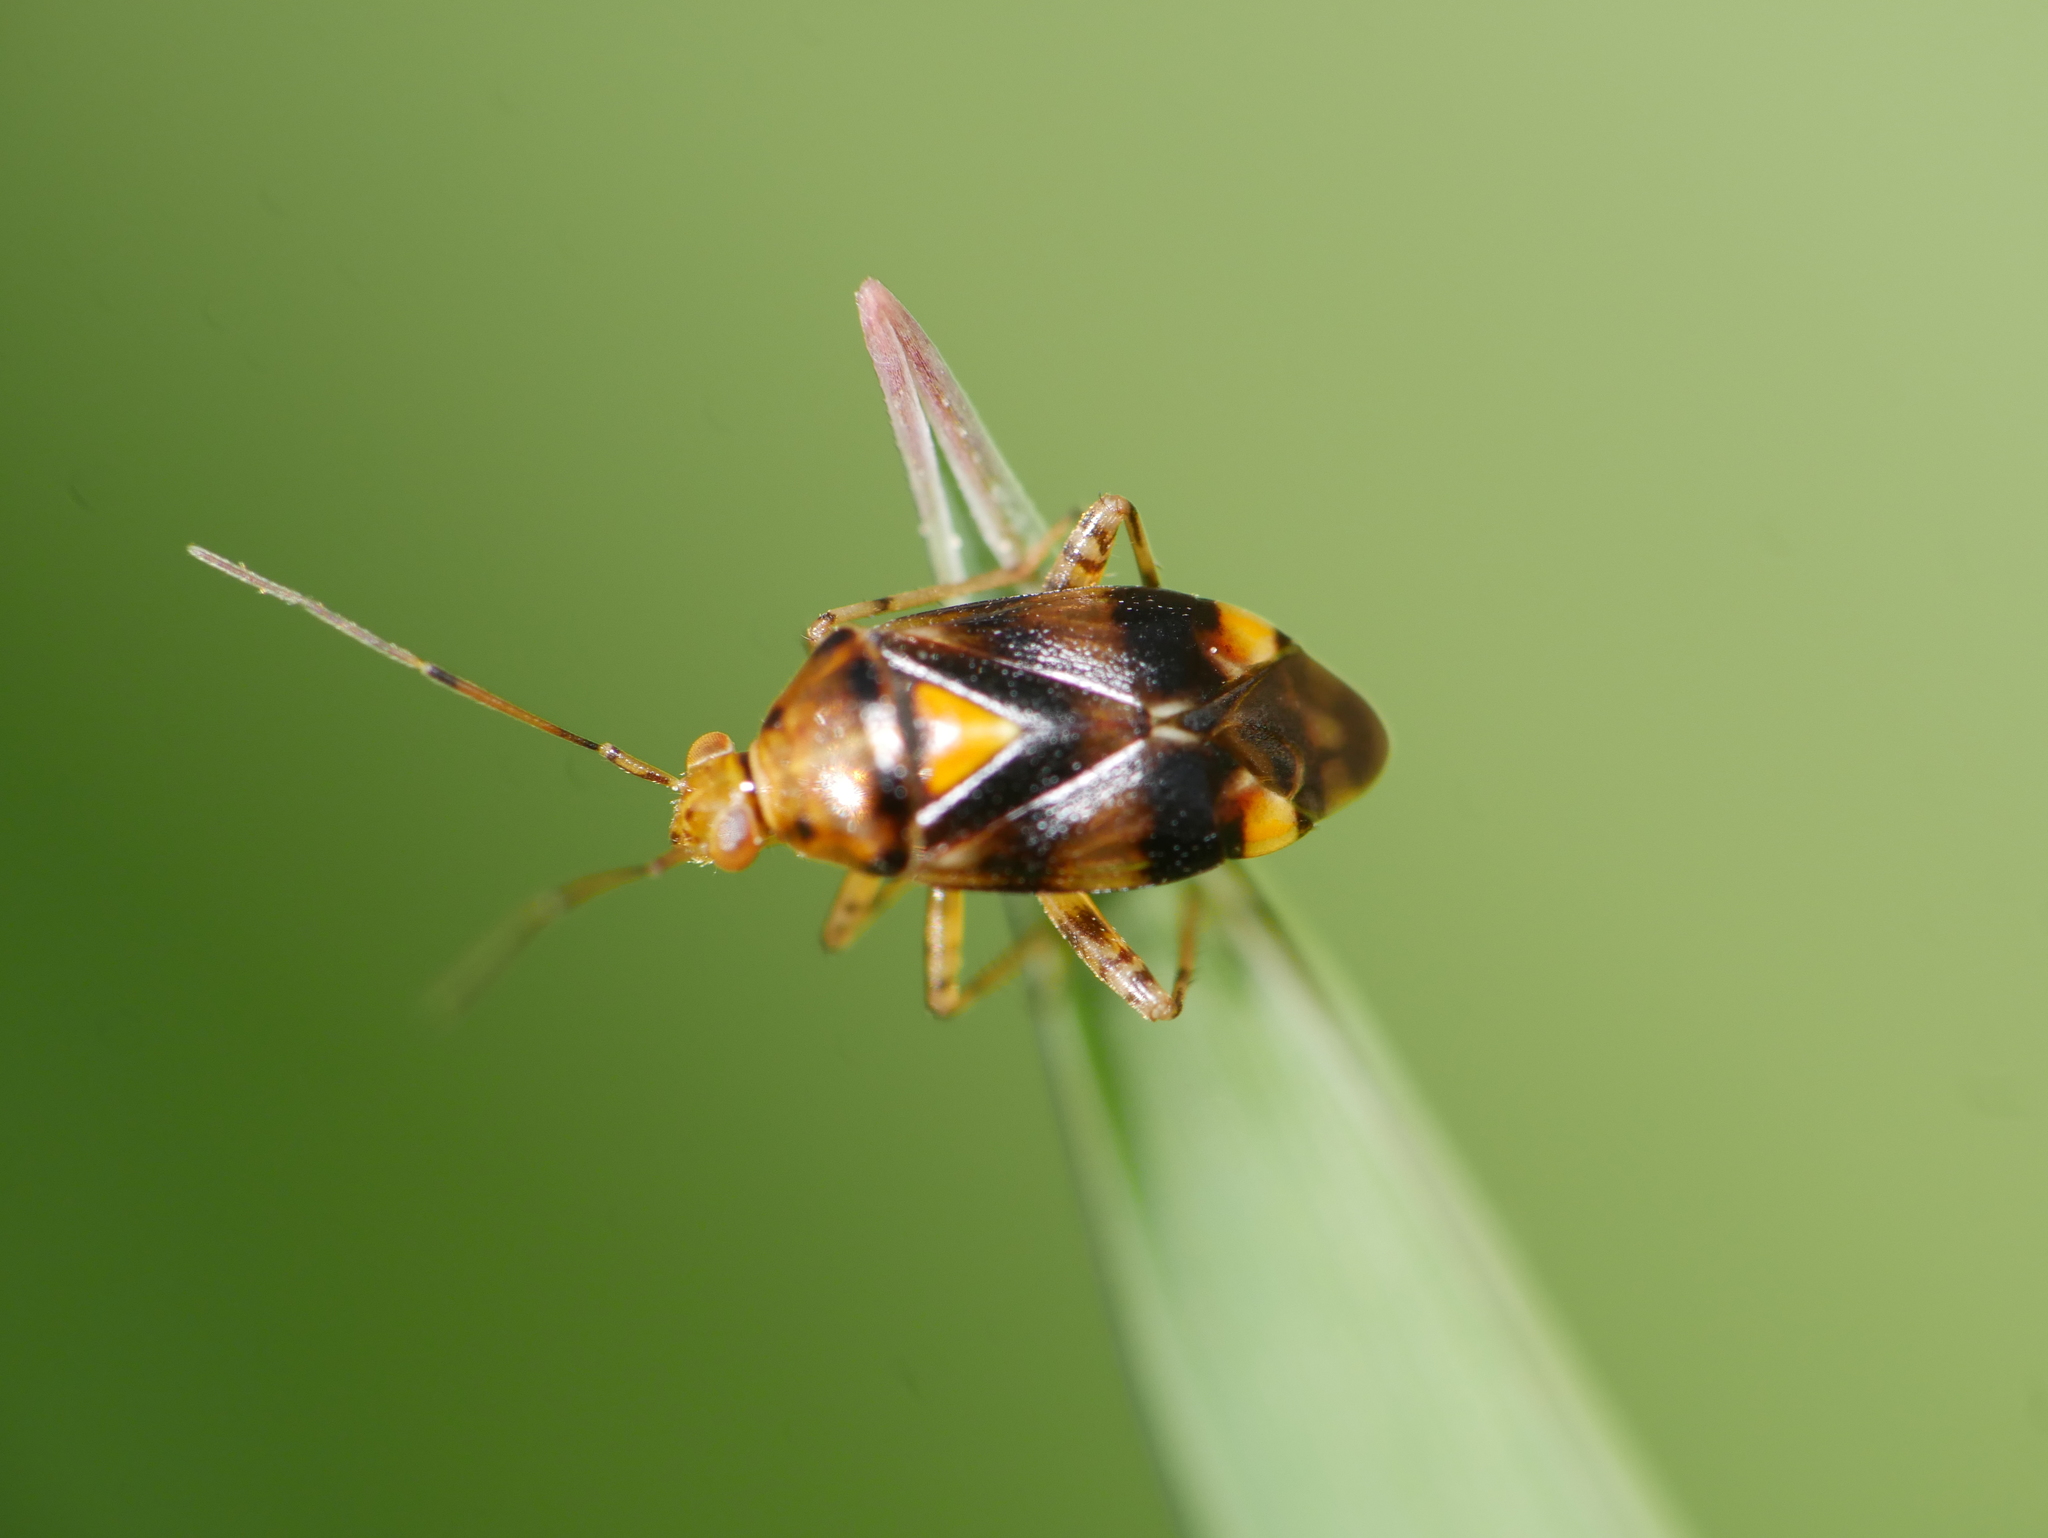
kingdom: Animalia
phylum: Arthropoda
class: Insecta
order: Hemiptera
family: Miridae
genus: Liocoris
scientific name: Liocoris tripustulatus
